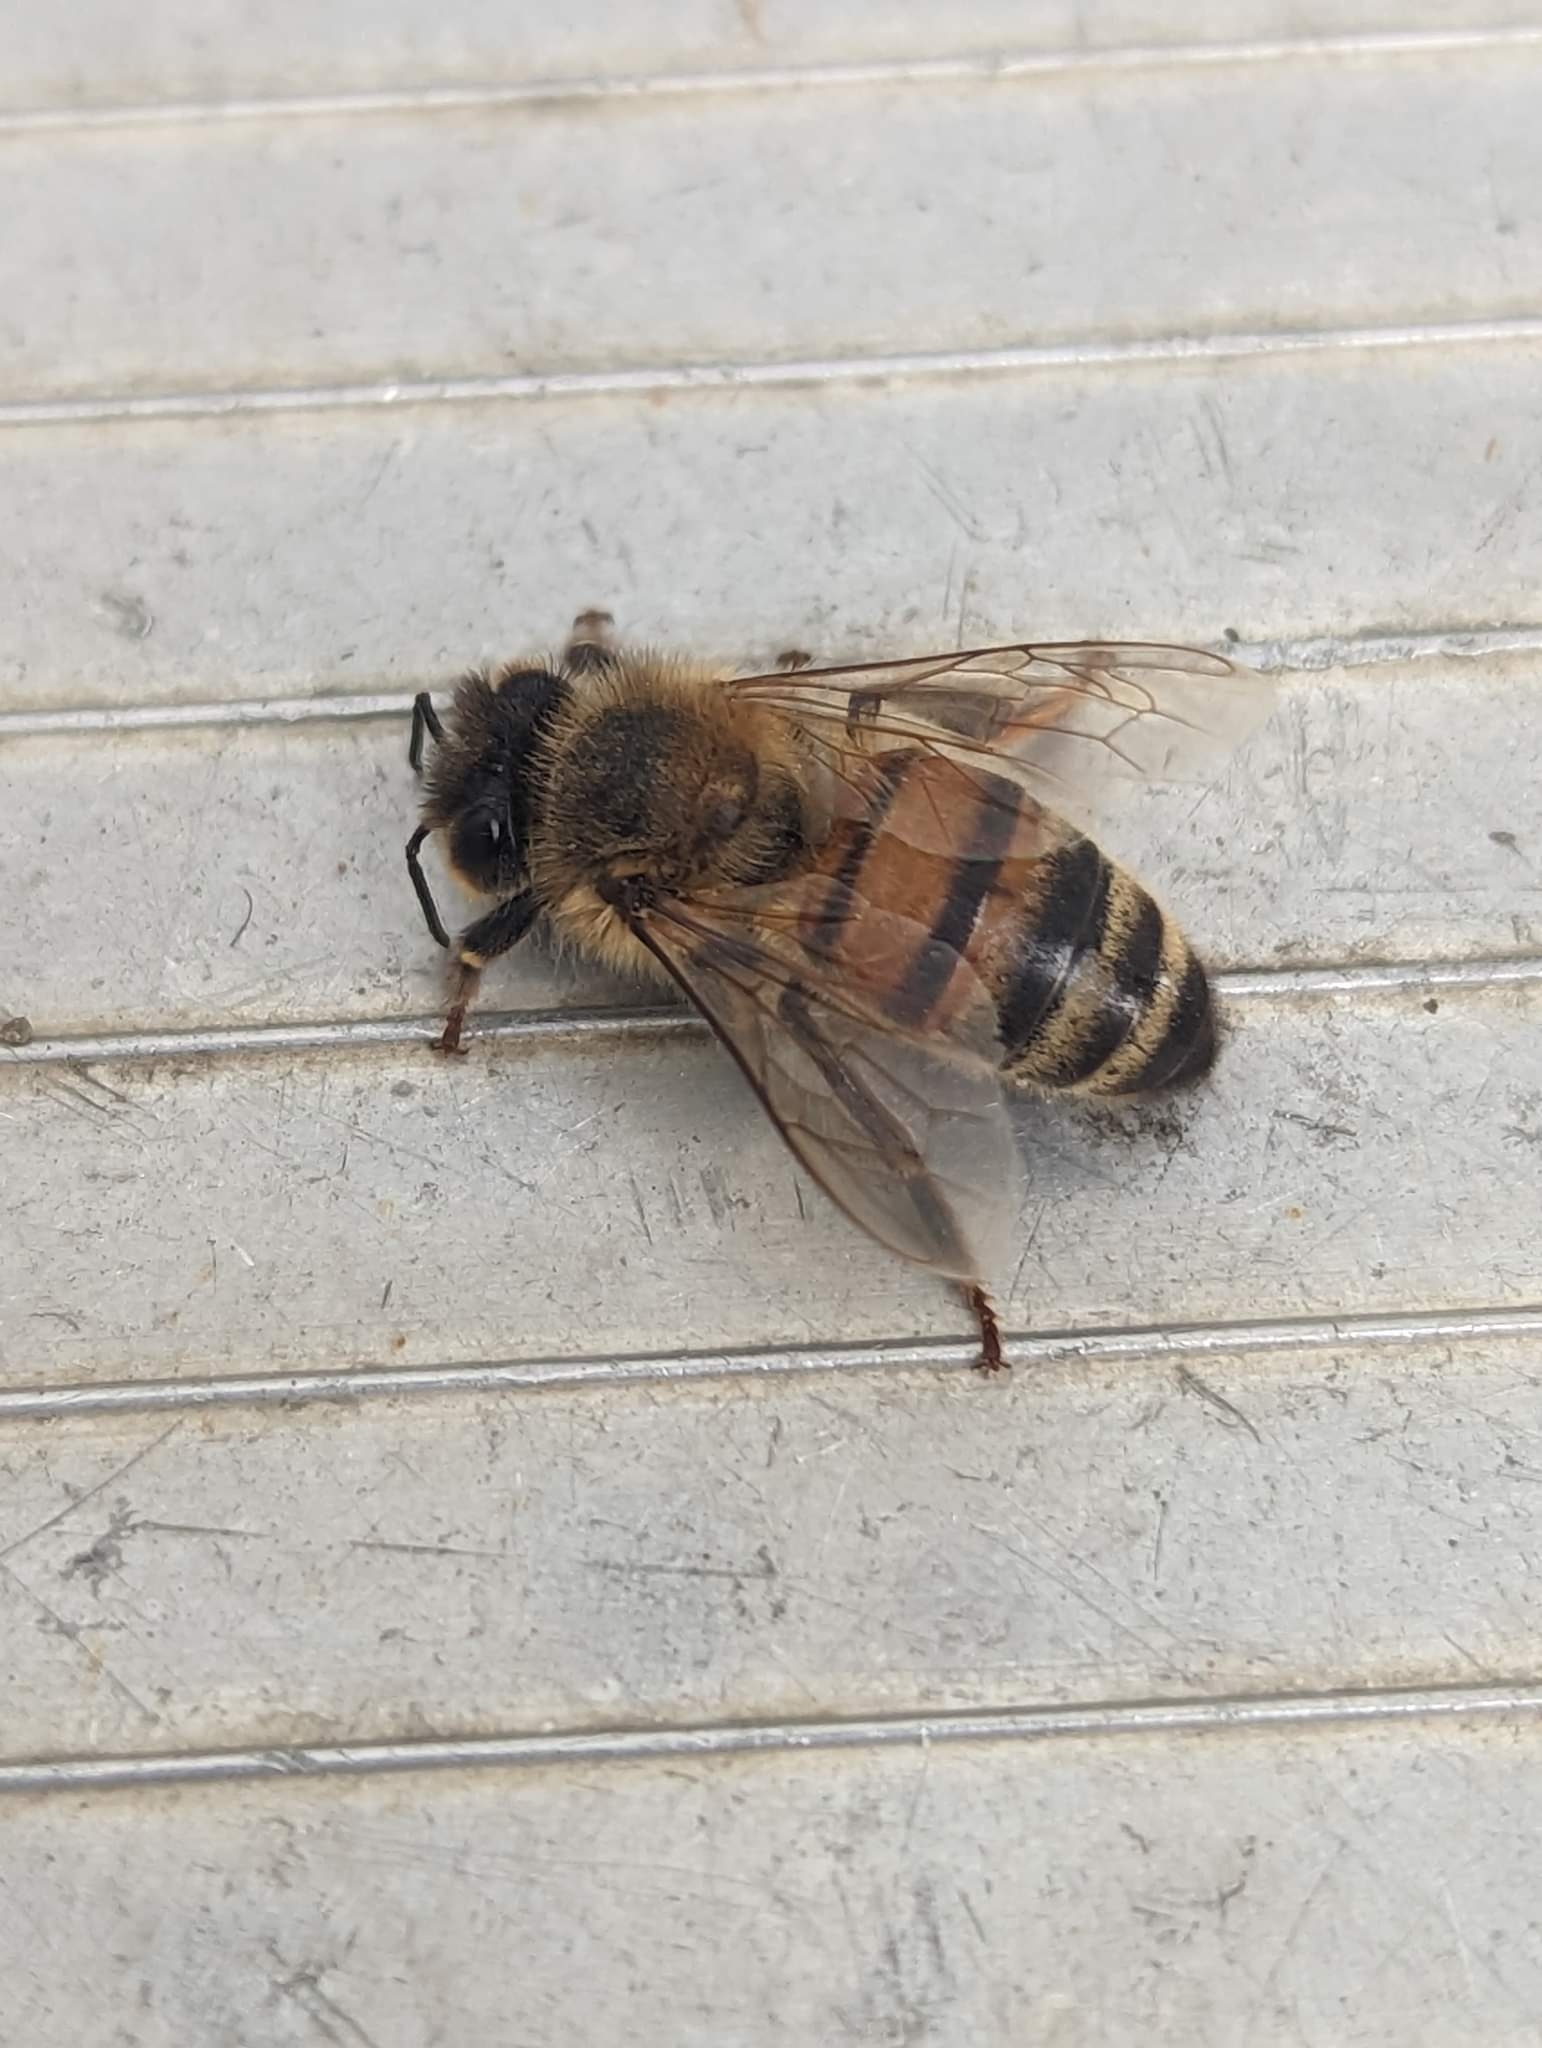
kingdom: Animalia
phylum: Arthropoda
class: Insecta
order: Hymenoptera
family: Apidae
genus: Apis
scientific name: Apis mellifera
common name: Honey bee
